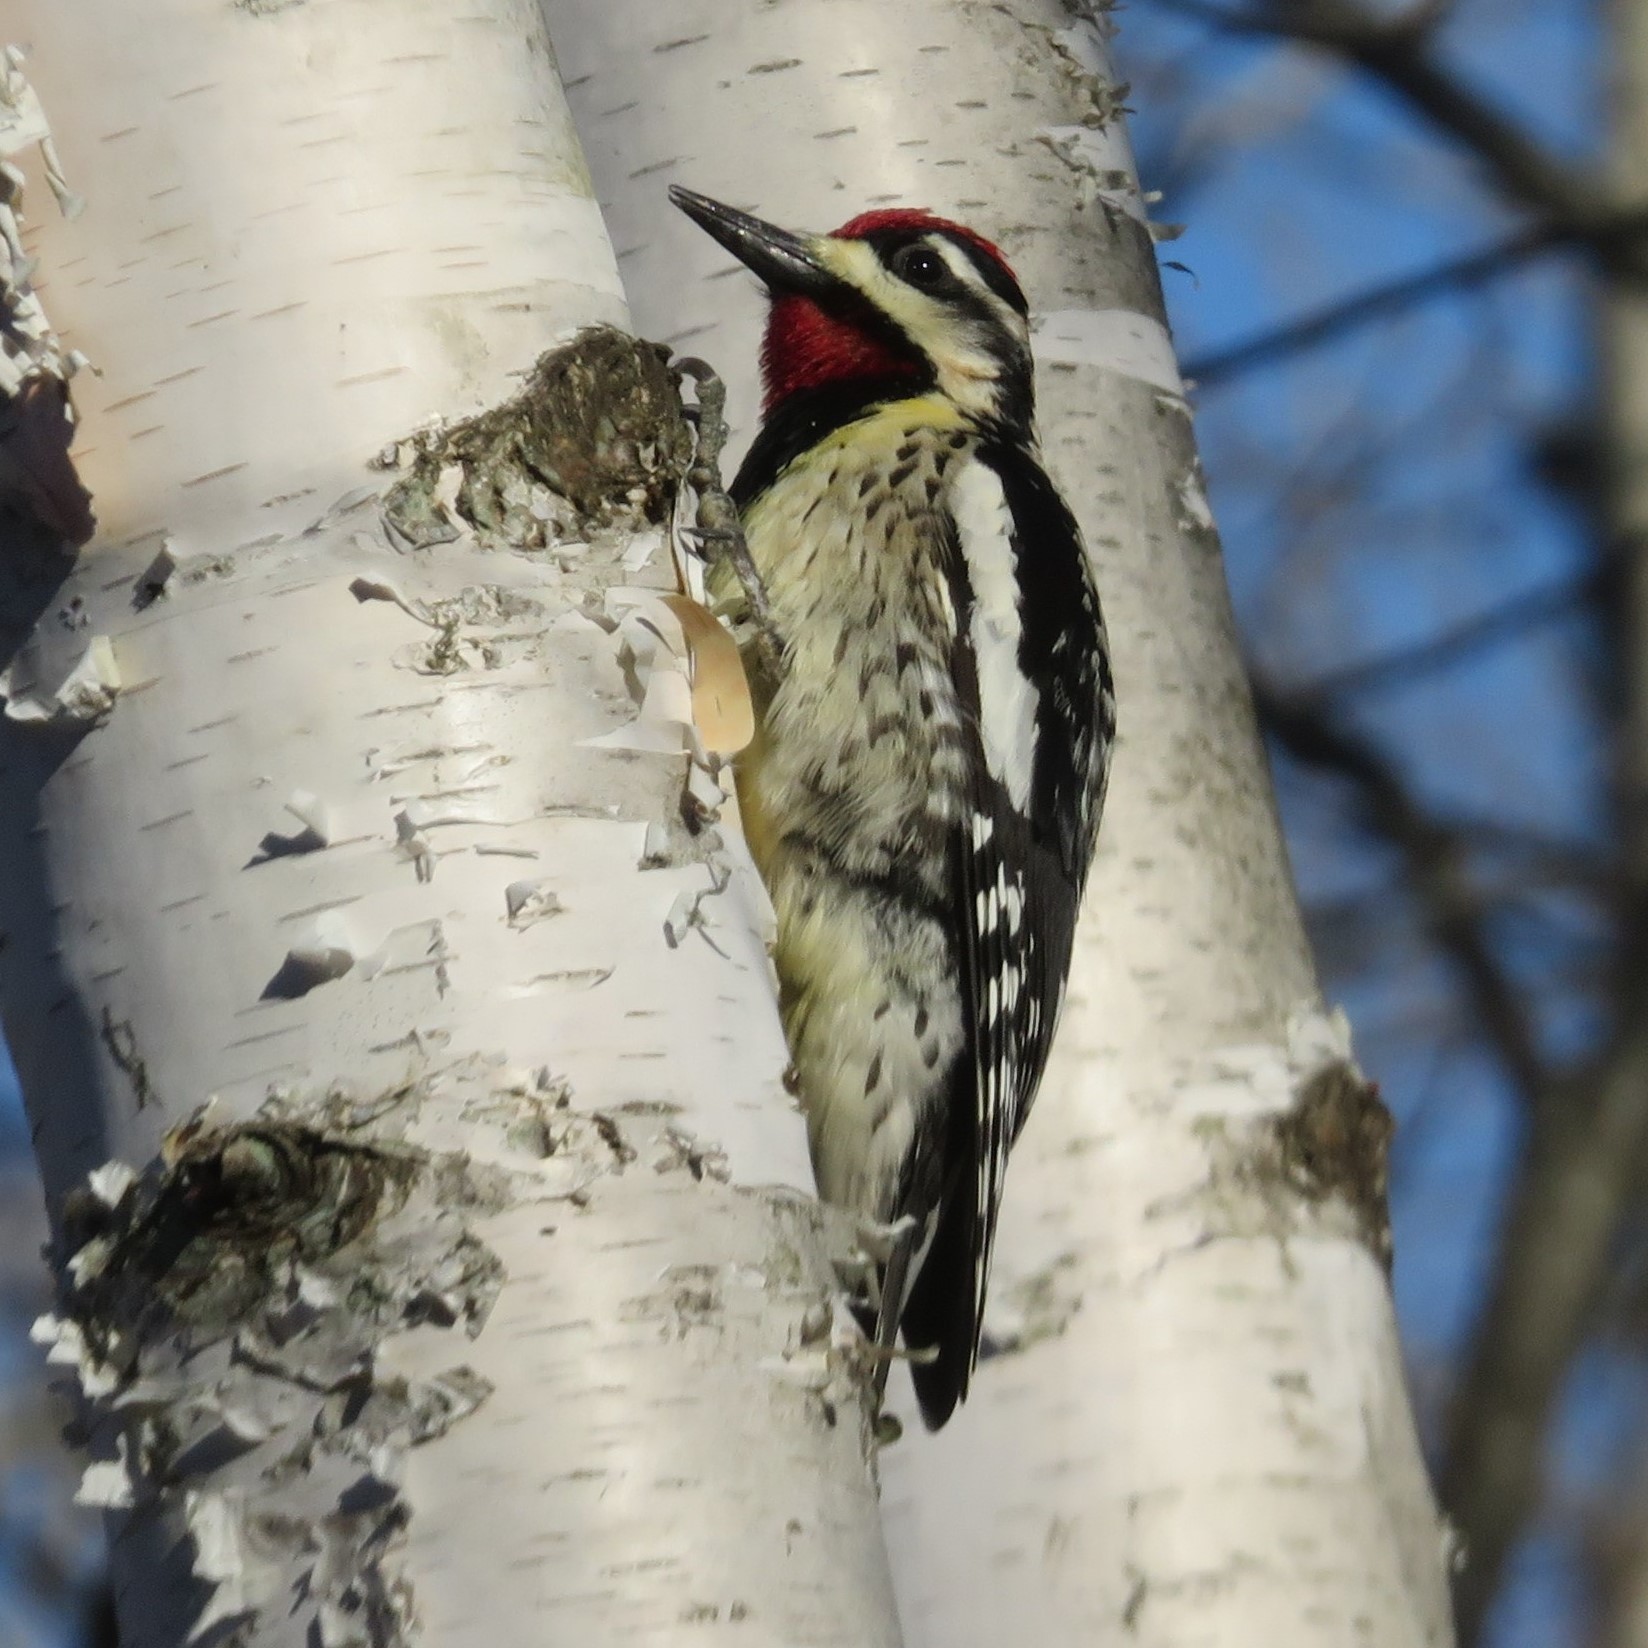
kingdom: Animalia
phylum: Chordata
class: Aves
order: Piciformes
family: Picidae
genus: Sphyrapicus
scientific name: Sphyrapicus varius
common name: Yellow-bellied sapsucker
